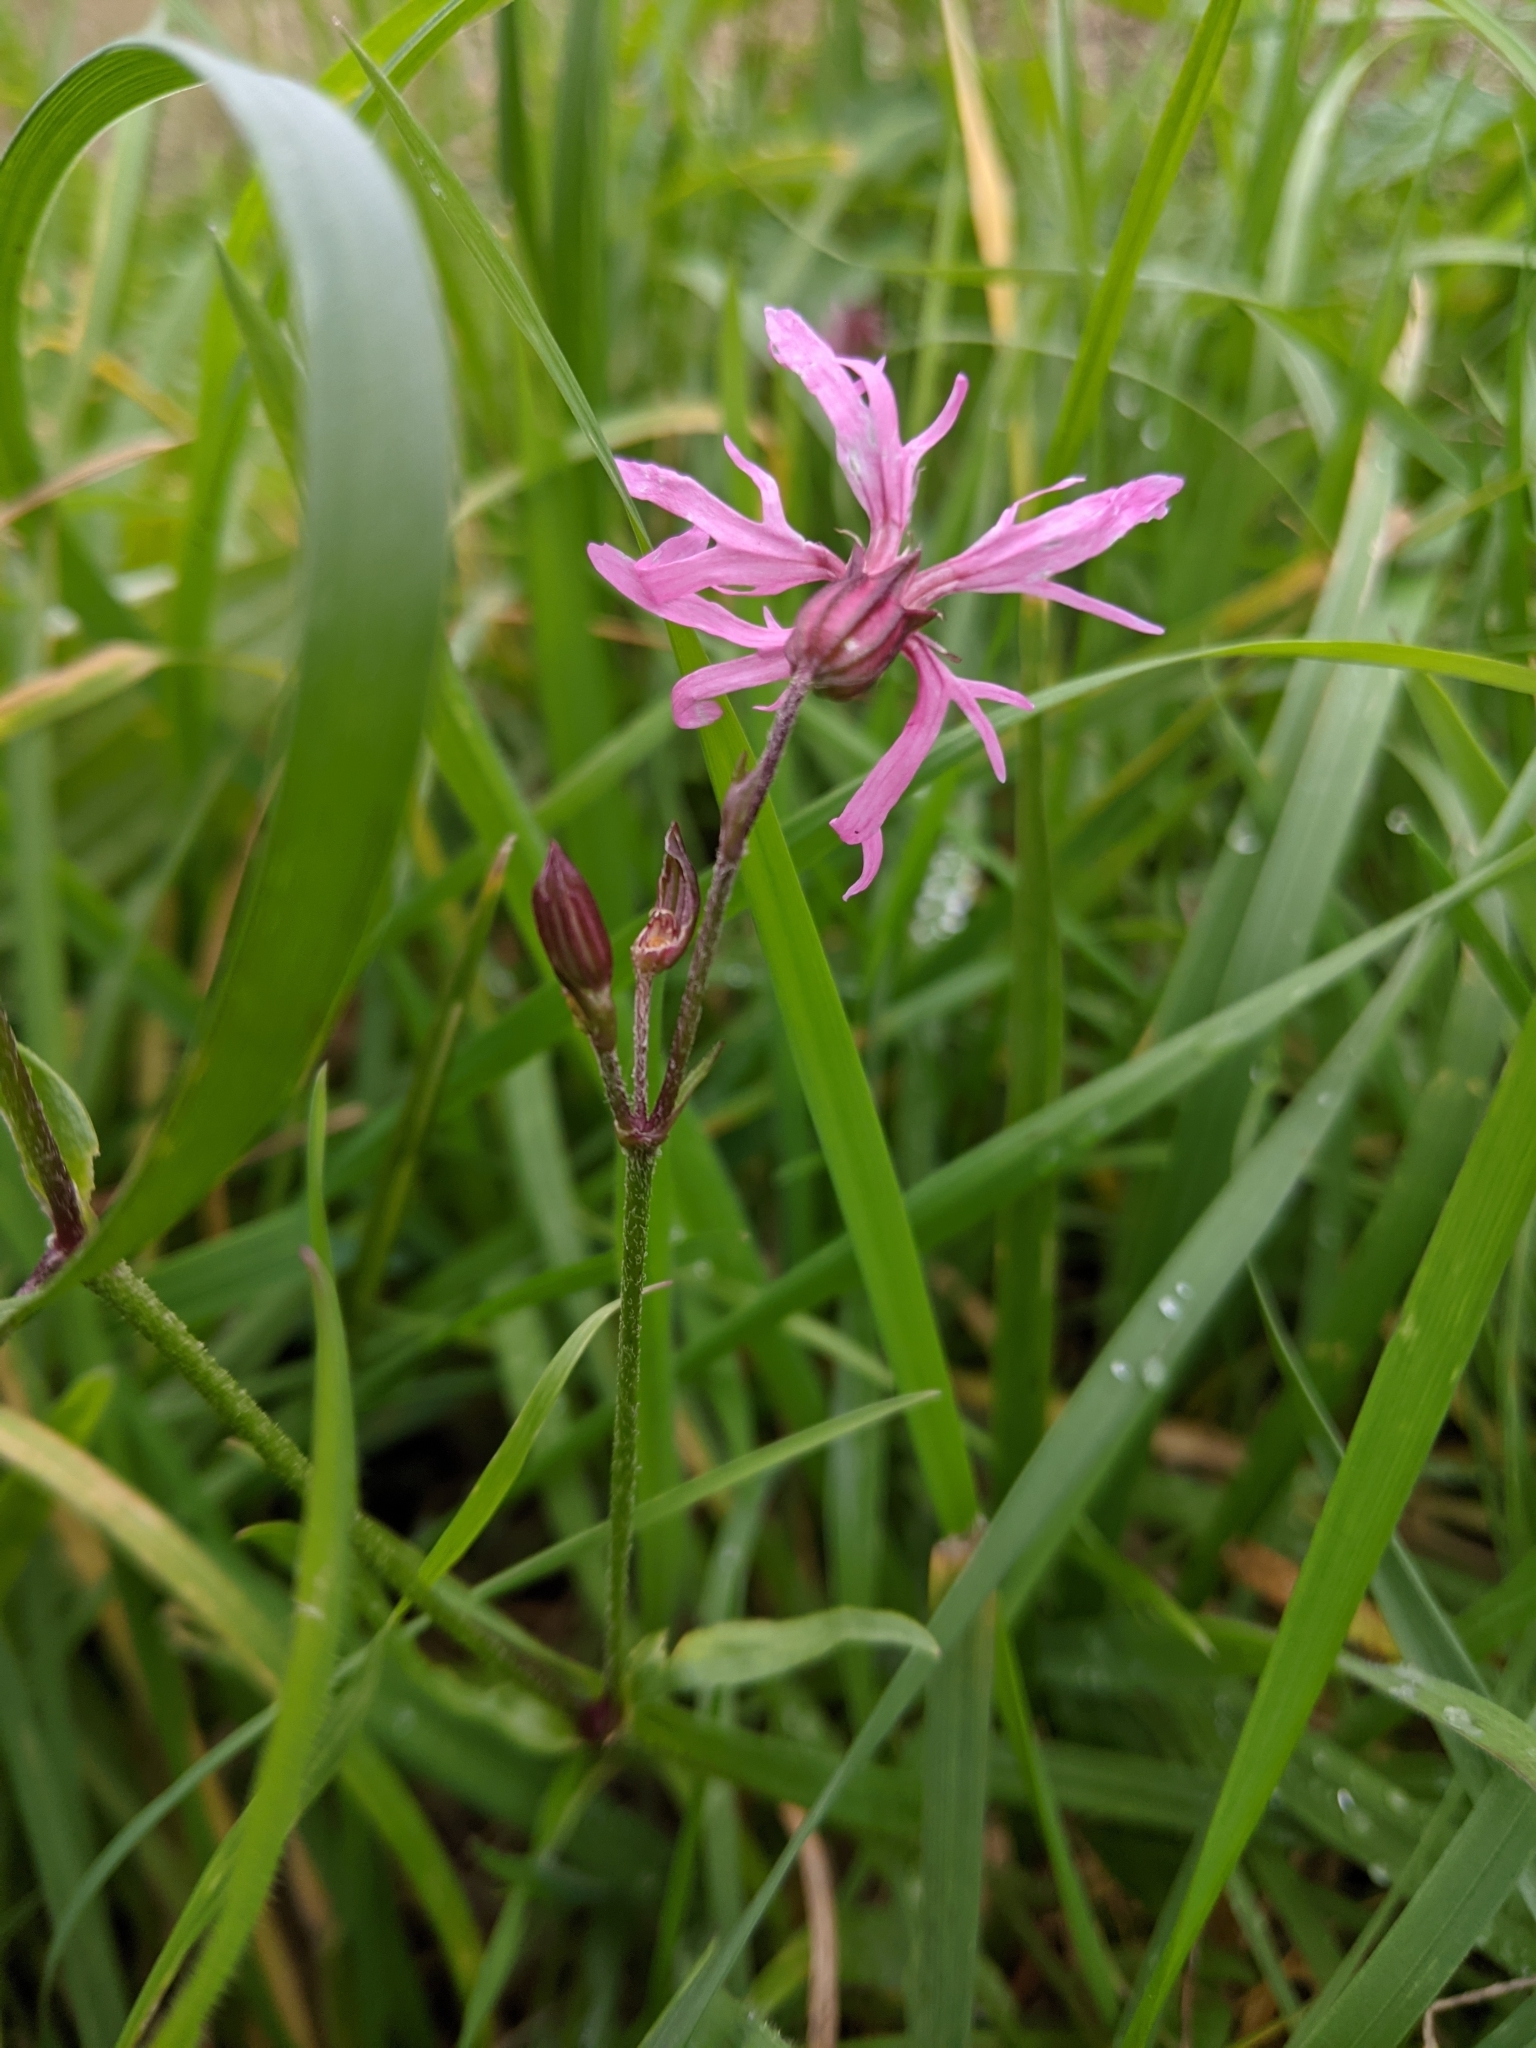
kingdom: Plantae
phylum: Tracheophyta
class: Magnoliopsida
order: Caryophyllales
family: Caryophyllaceae
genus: Silene
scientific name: Silene flos-cuculi
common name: Ragged-robin
